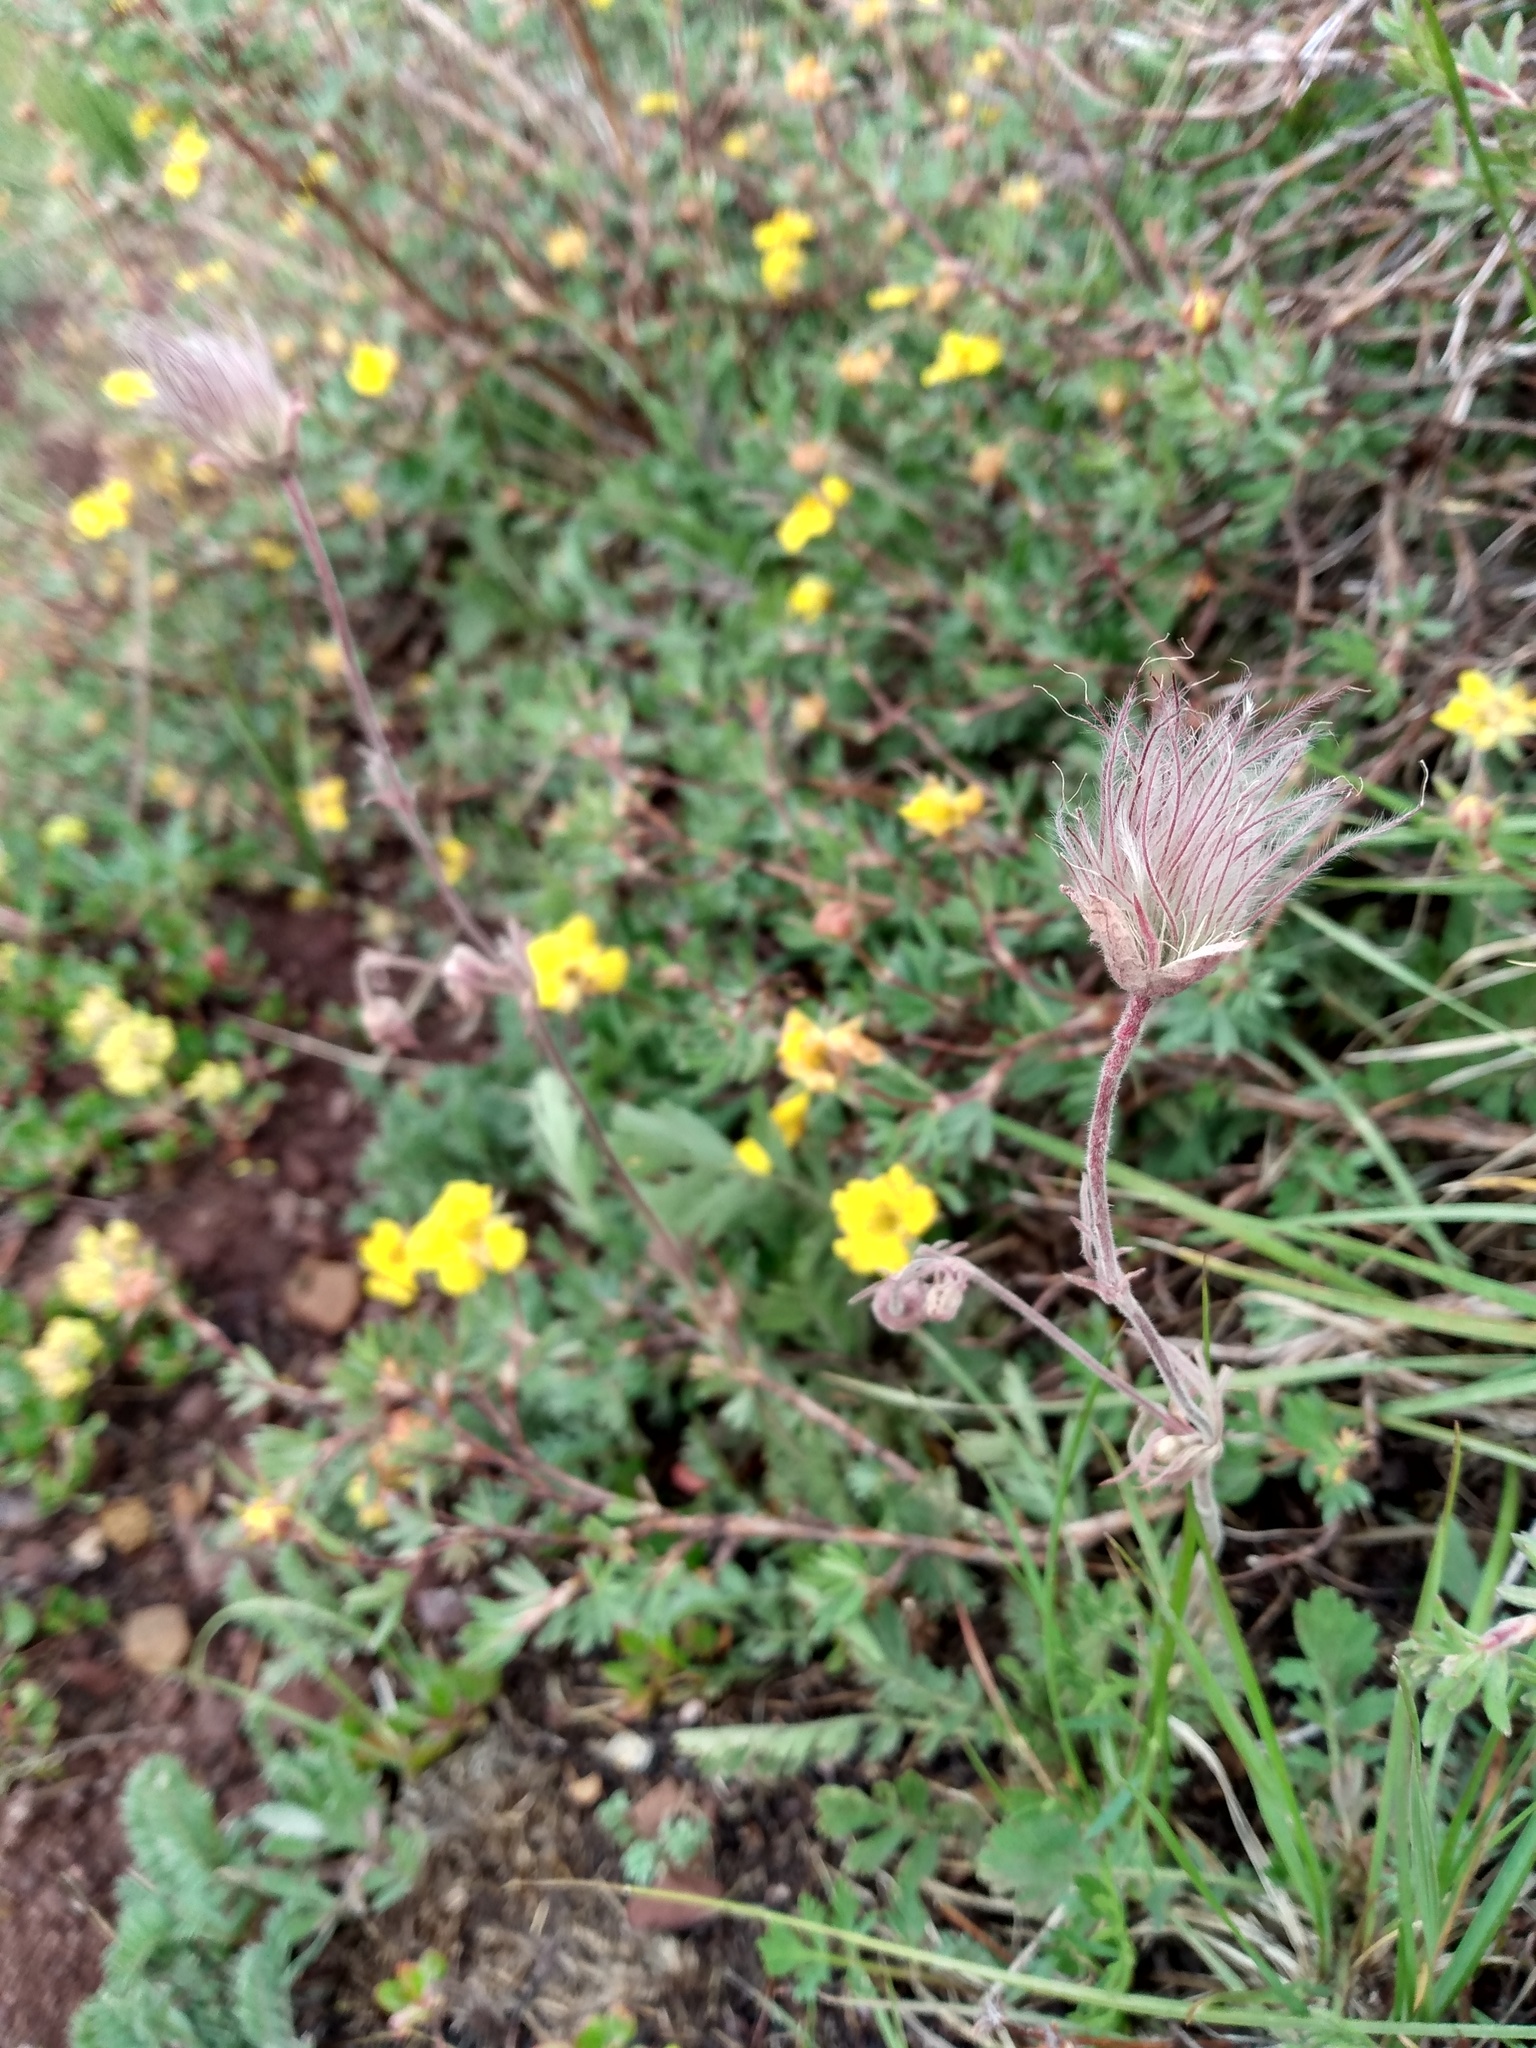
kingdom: Plantae
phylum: Tracheophyta
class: Magnoliopsida
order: Rosales
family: Rosaceae
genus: Geum
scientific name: Geum triflorum
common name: Old man's whiskers
